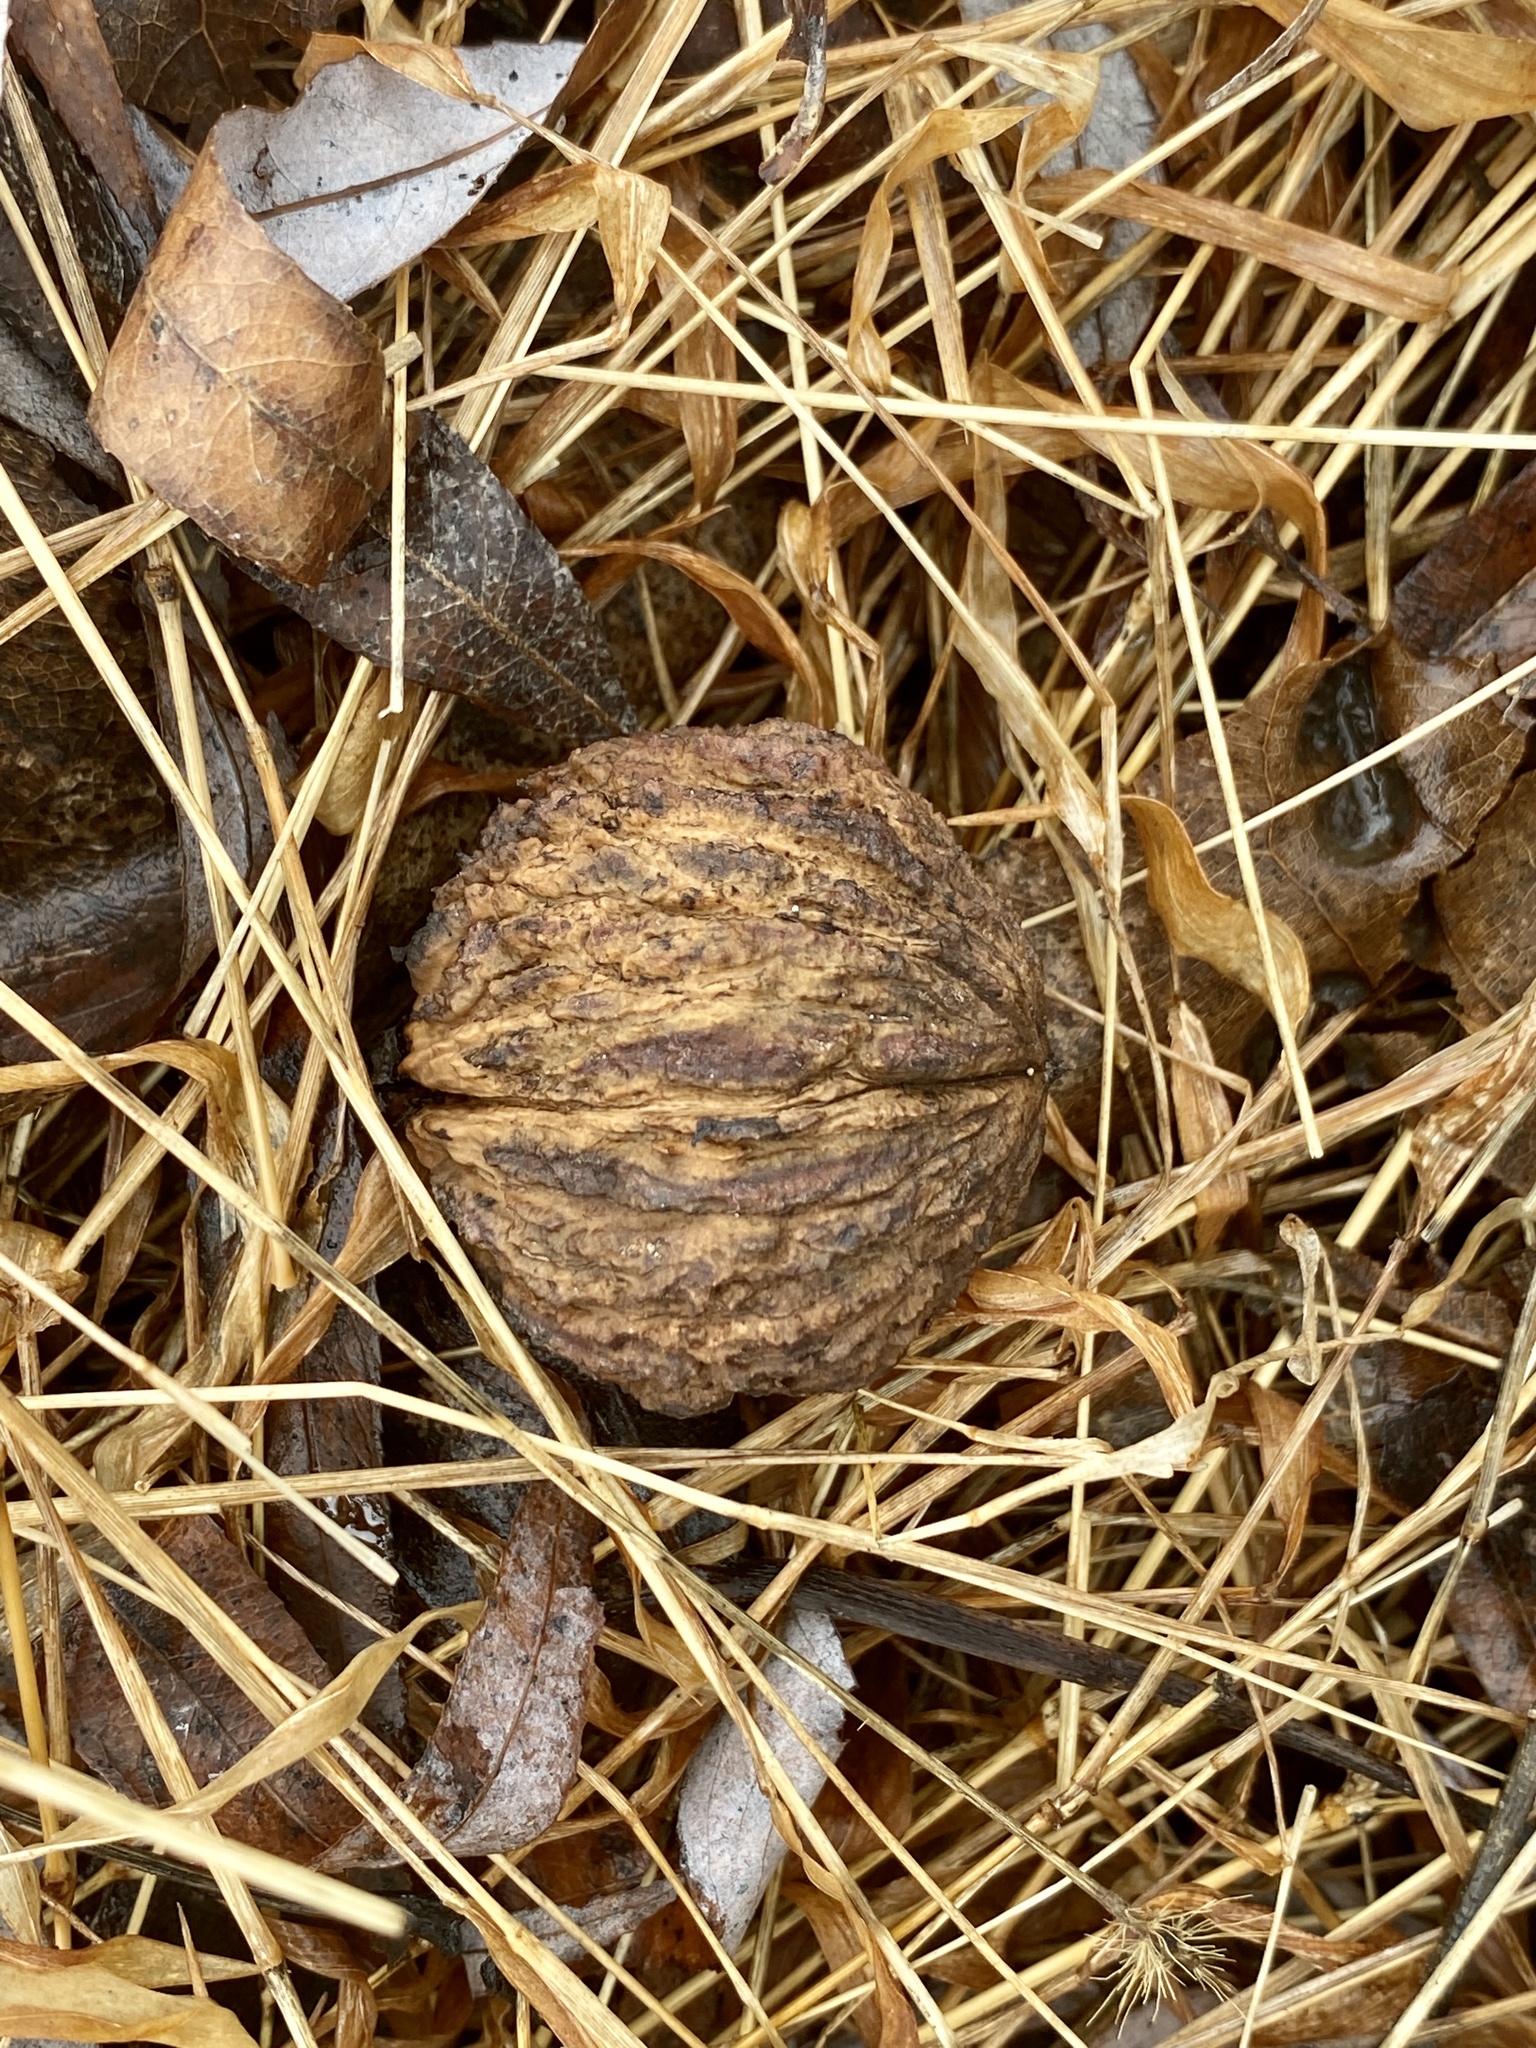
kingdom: Plantae
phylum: Tracheophyta
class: Magnoliopsida
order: Fagales
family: Juglandaceae
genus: Juglans
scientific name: Juglans nigra
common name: Black walnut
